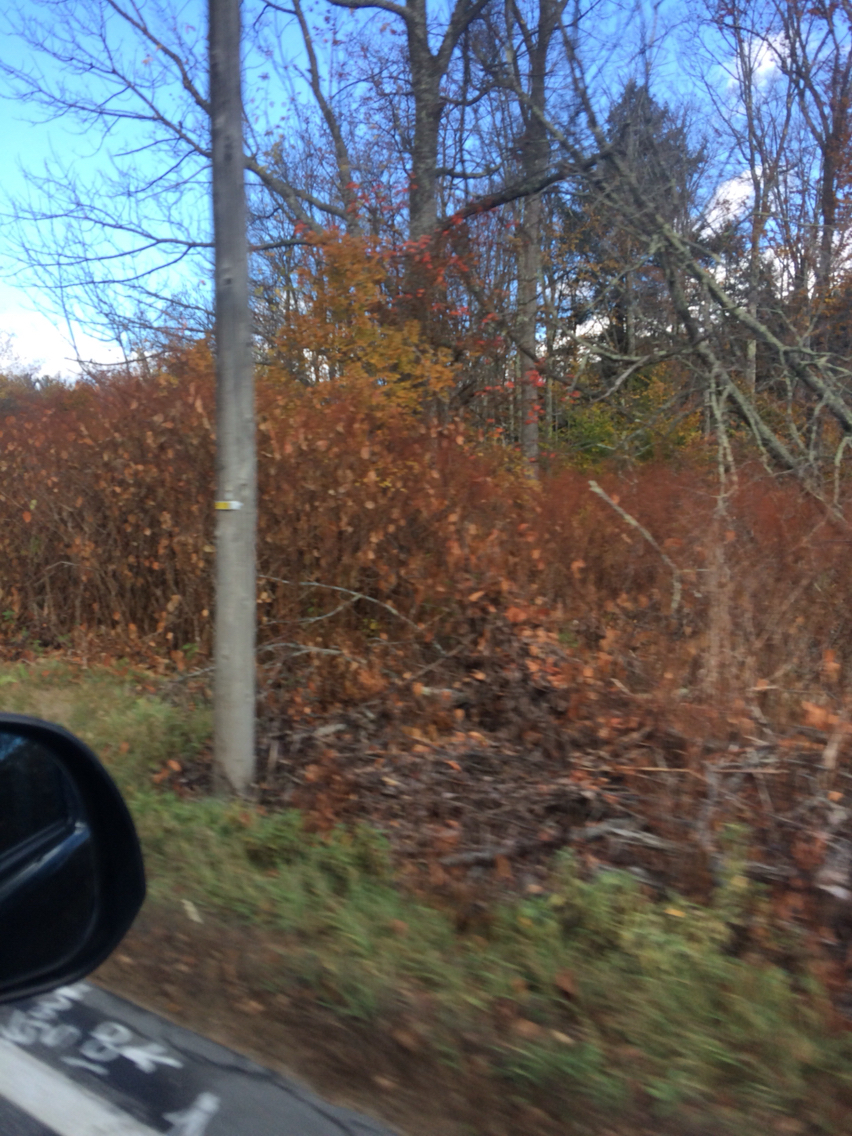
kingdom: Plantae
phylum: Tracheophyta
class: Magnoliopsida
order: Caryophyllales
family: Polygonaceae
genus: Reynoutria
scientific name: Reynoutria japonica
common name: Japanese knotweed
